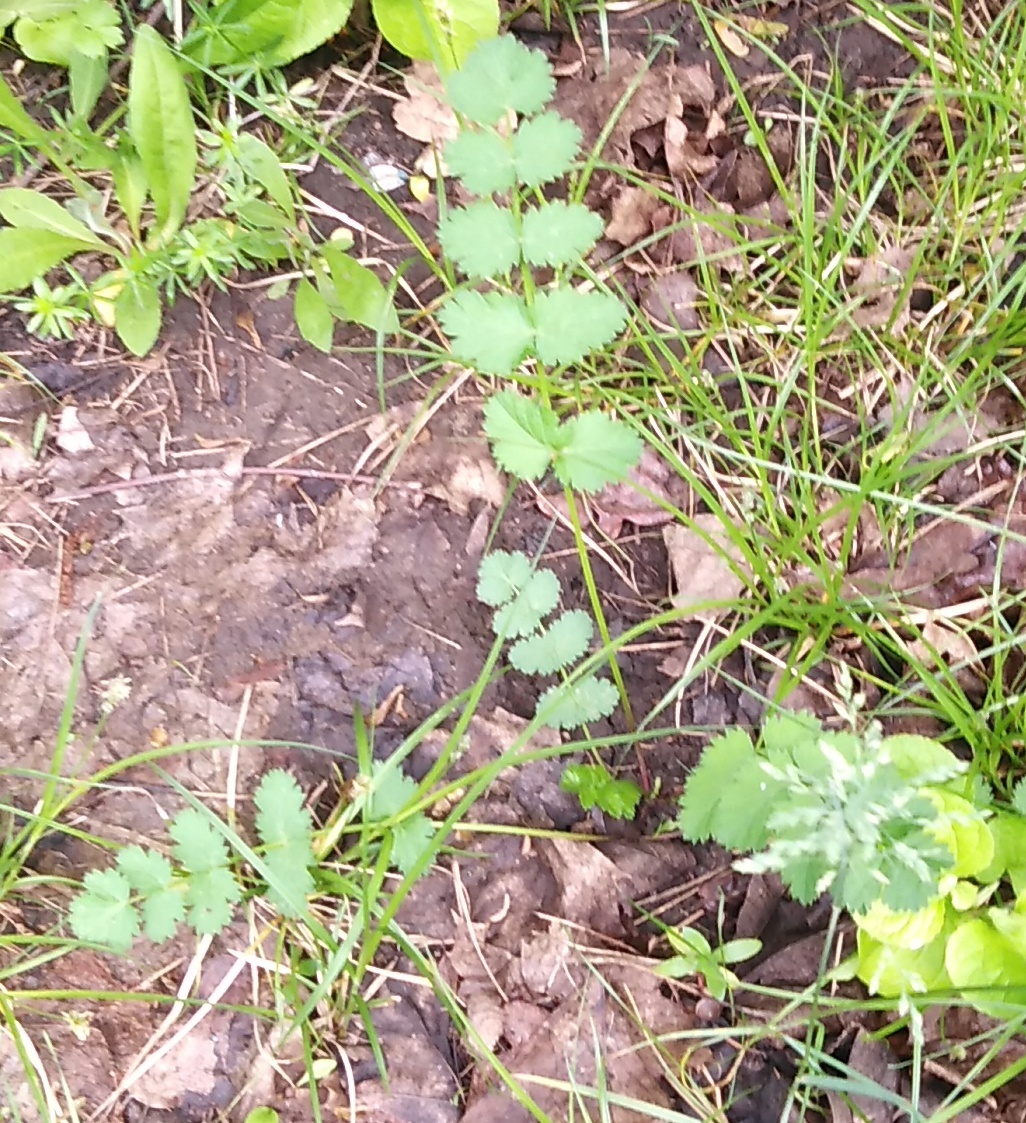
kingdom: Plantae
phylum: Tracheophyta
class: Magnoliopsida
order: Apiales
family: Apiaceae
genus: Pimpinella
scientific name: Pimpinella saxifraga
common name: Burnet-saxifrage
